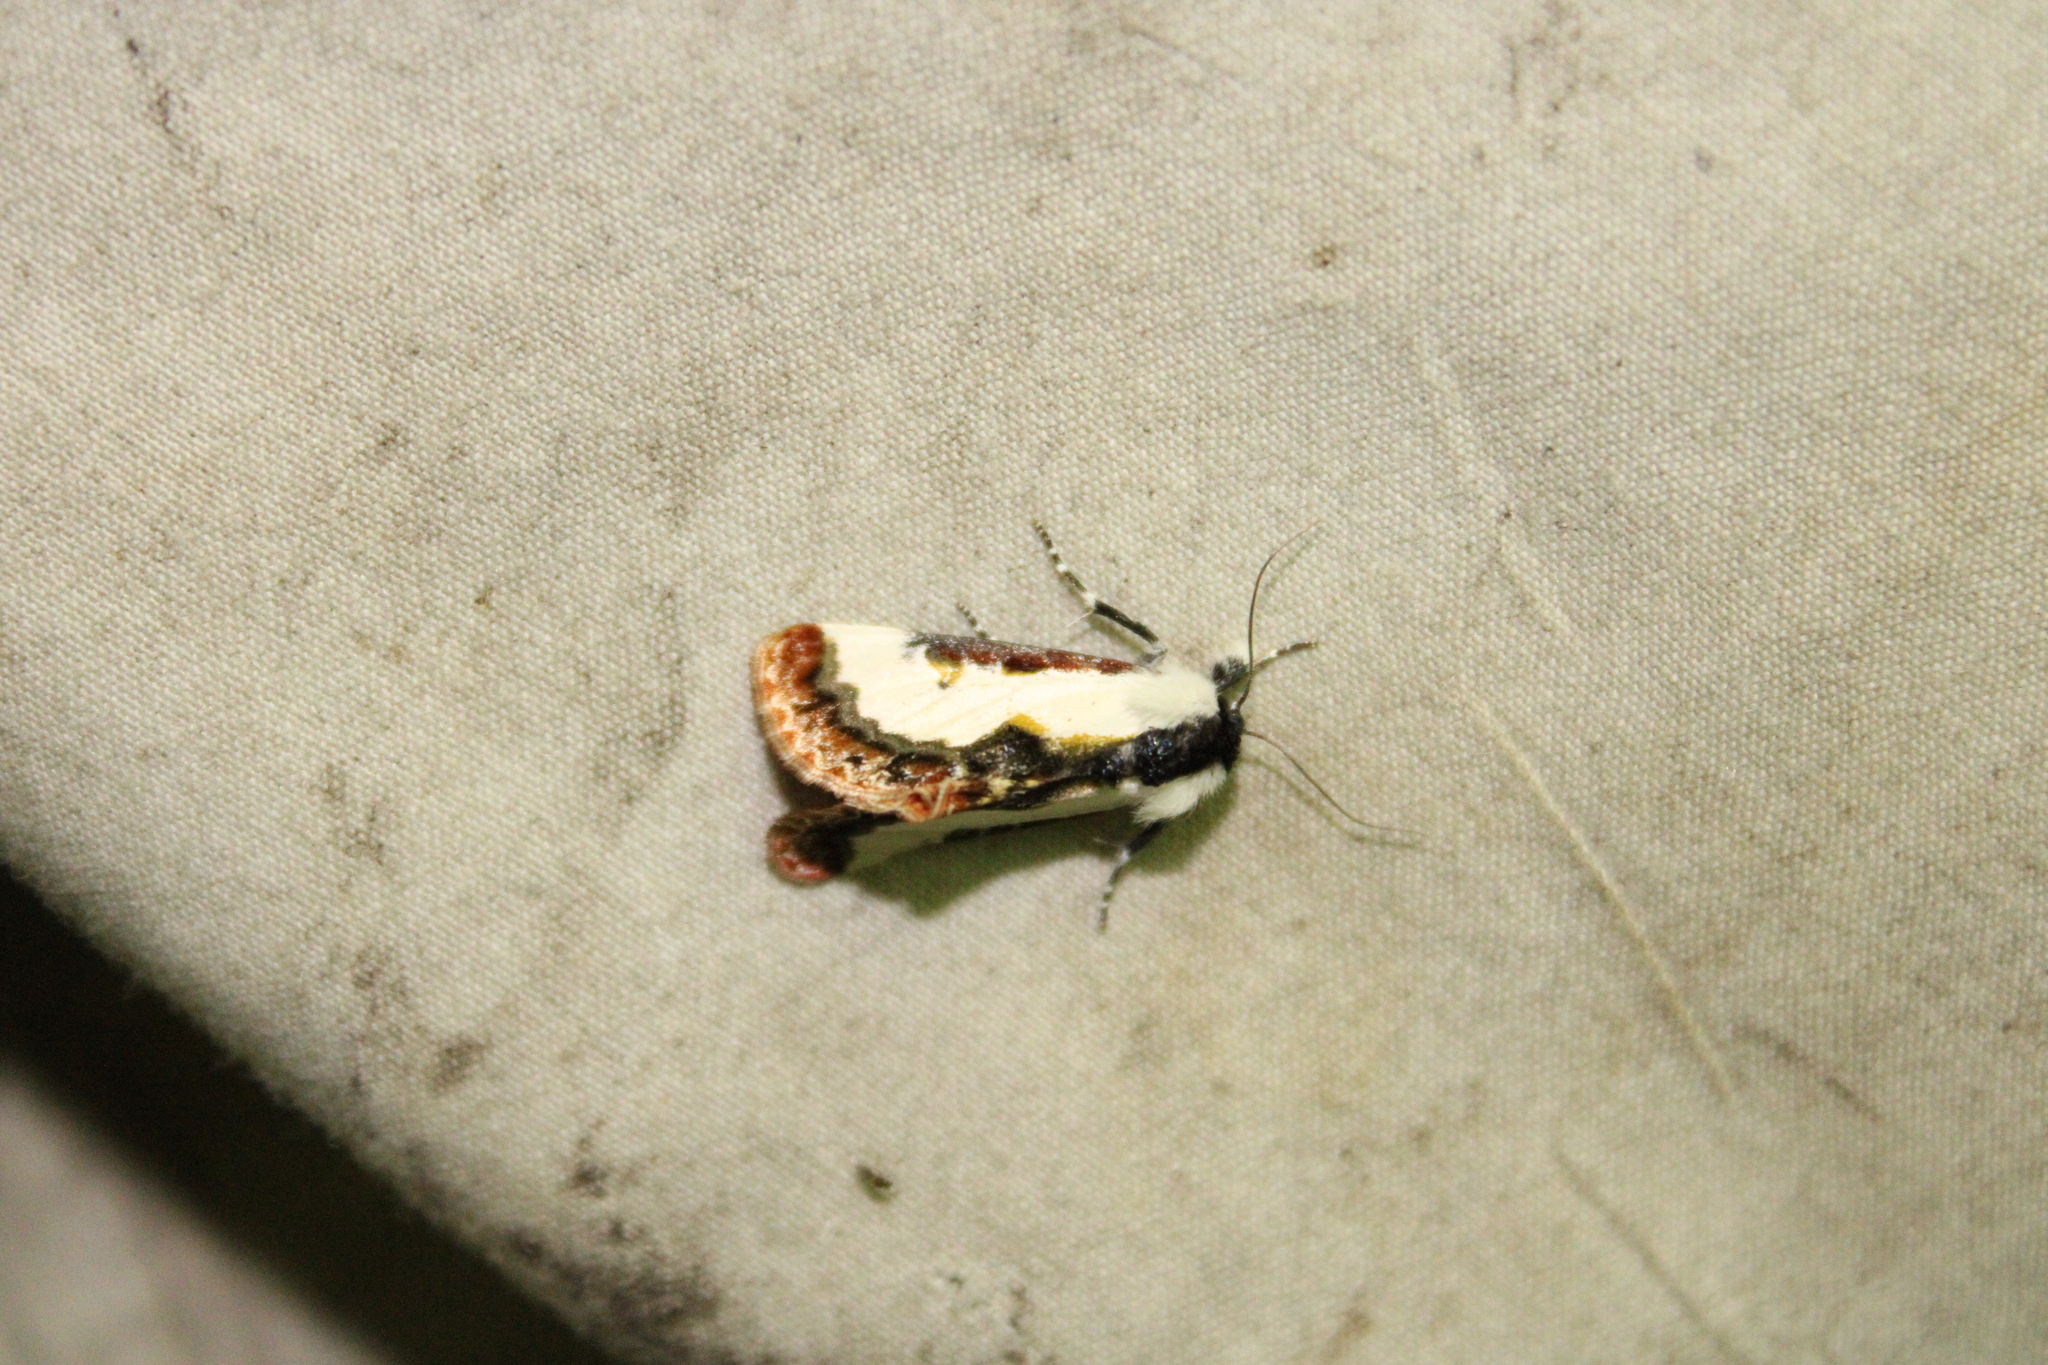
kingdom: Animalia
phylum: Arthropoda
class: Insecta
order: Lepidoptera
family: Noctuidae
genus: Eudryas
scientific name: Eudryas unio
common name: Pearly wood-nymph
